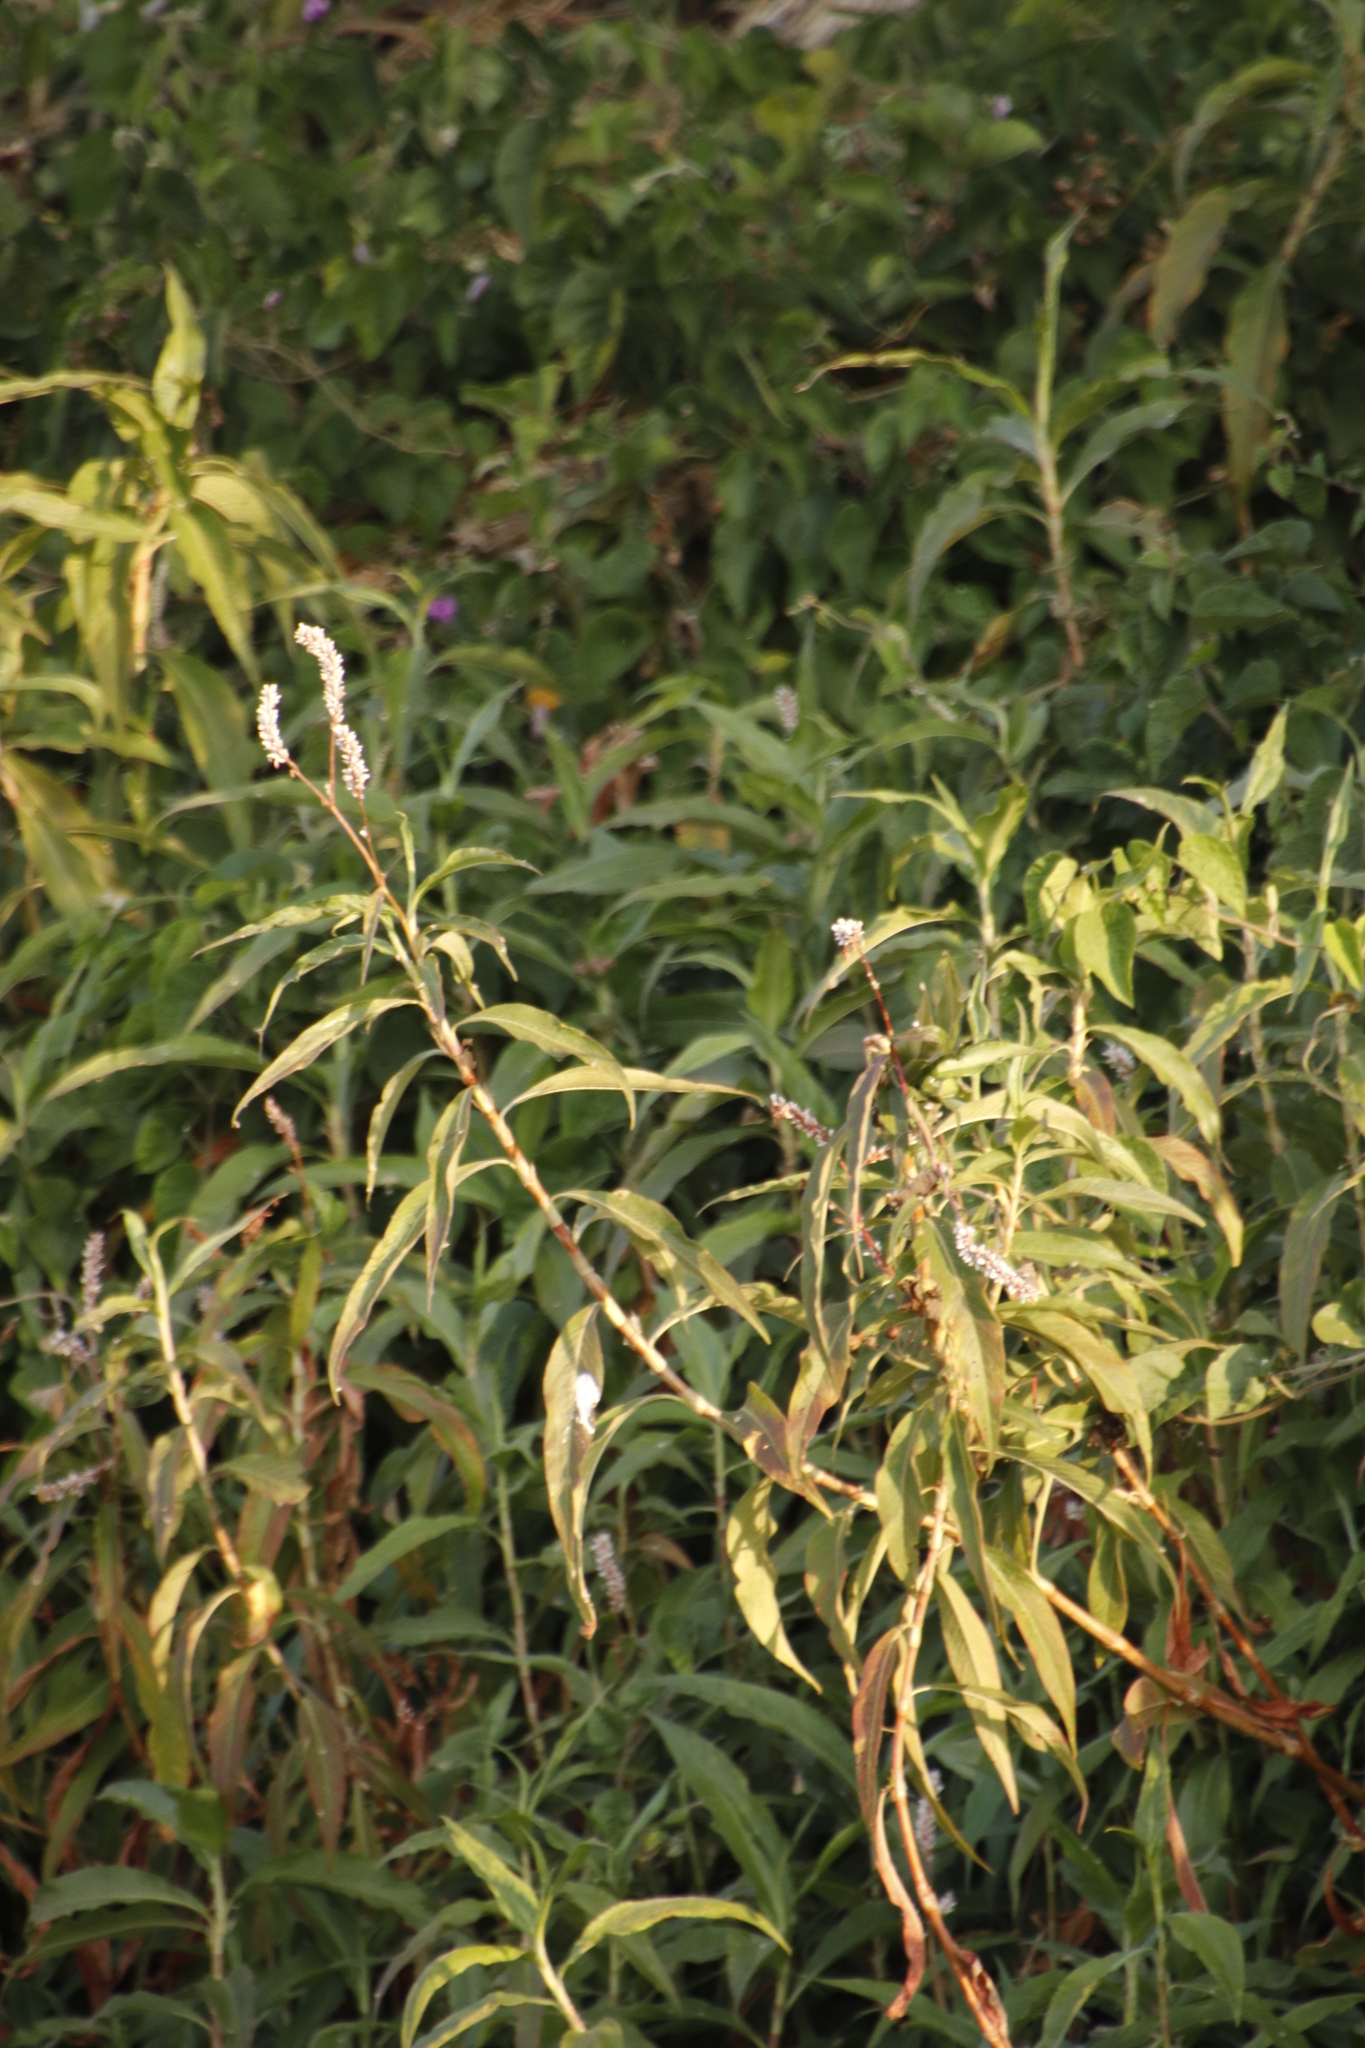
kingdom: Plantae
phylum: Tracheophyta
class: Magnoliopsida
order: Caryophyllales
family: Polygonaceae
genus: Persicaria
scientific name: Persicaria senegalensis
